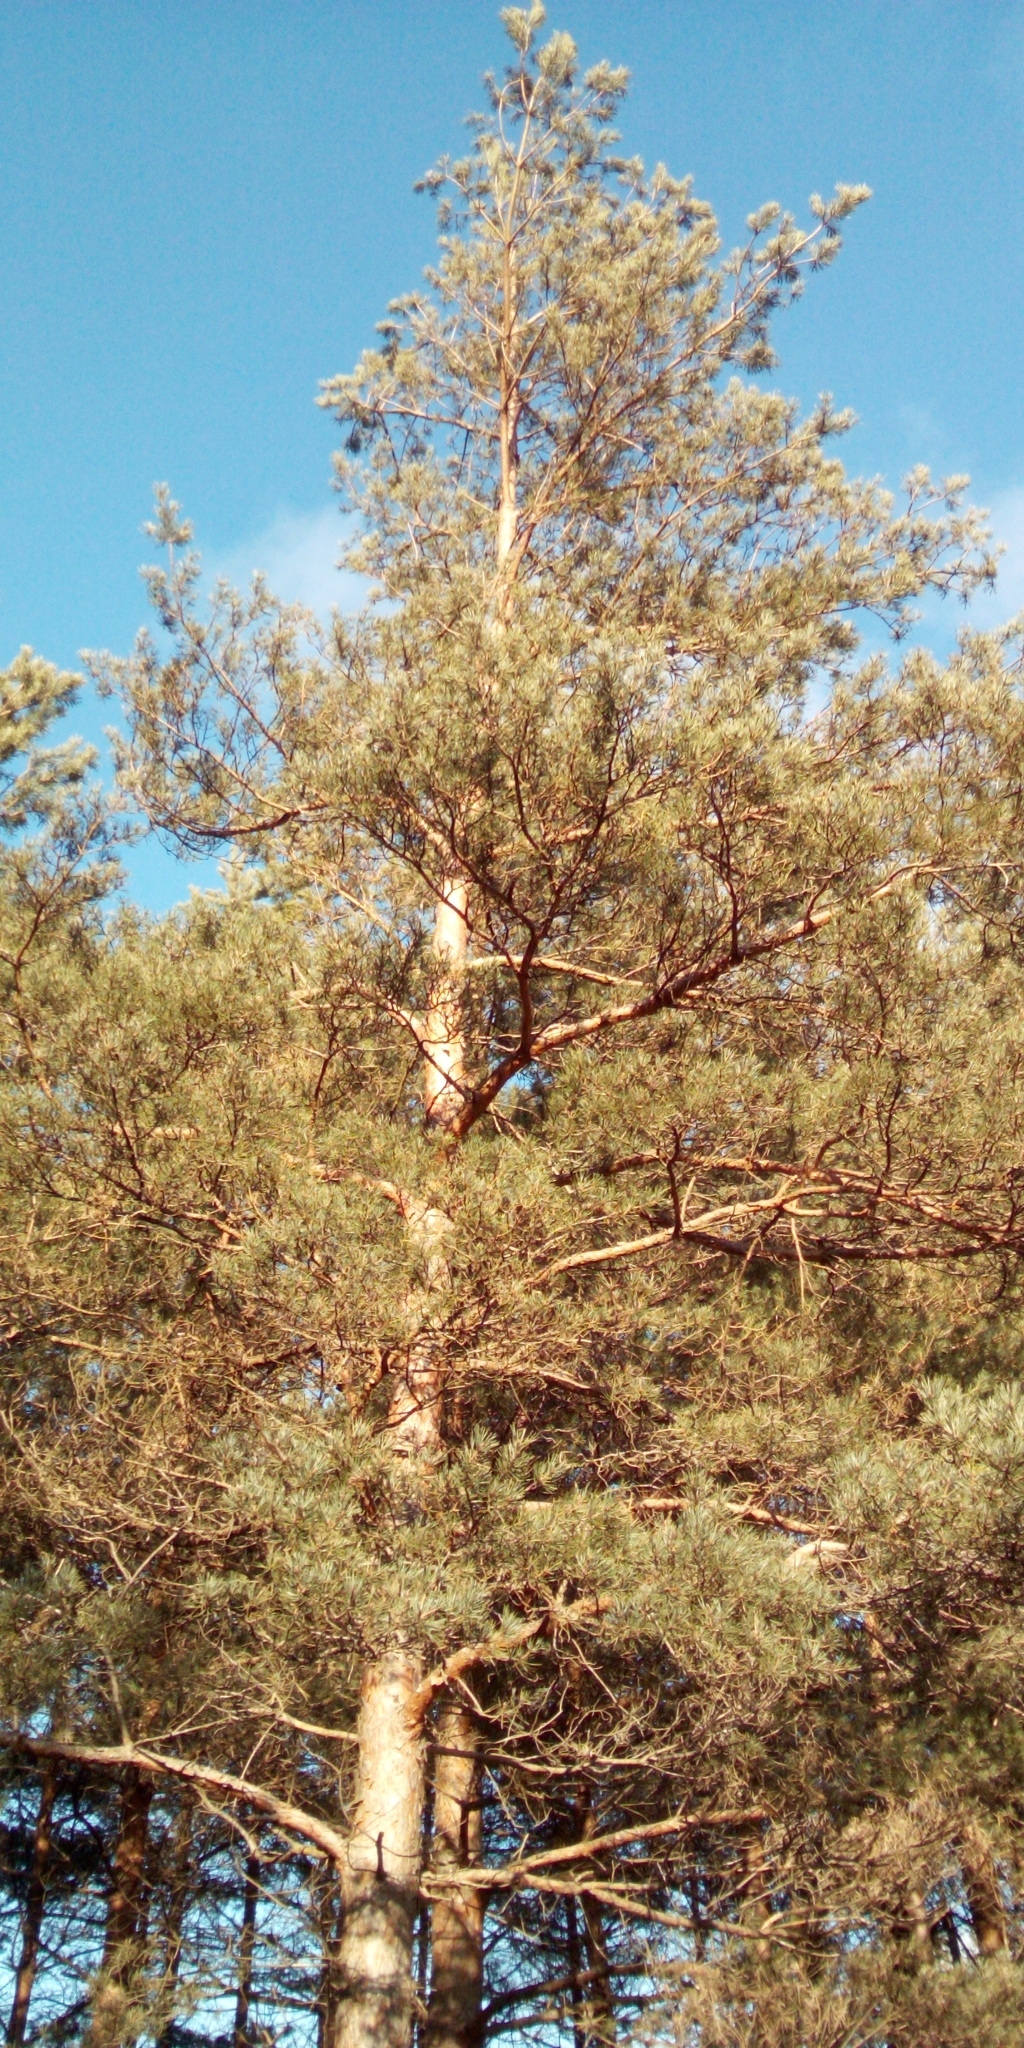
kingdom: Plantae
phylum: Tracheophyta
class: Pinopsida
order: Pinales
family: Pinaceae
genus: Pinus
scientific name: Pinus sylvestris
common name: Scots pine
